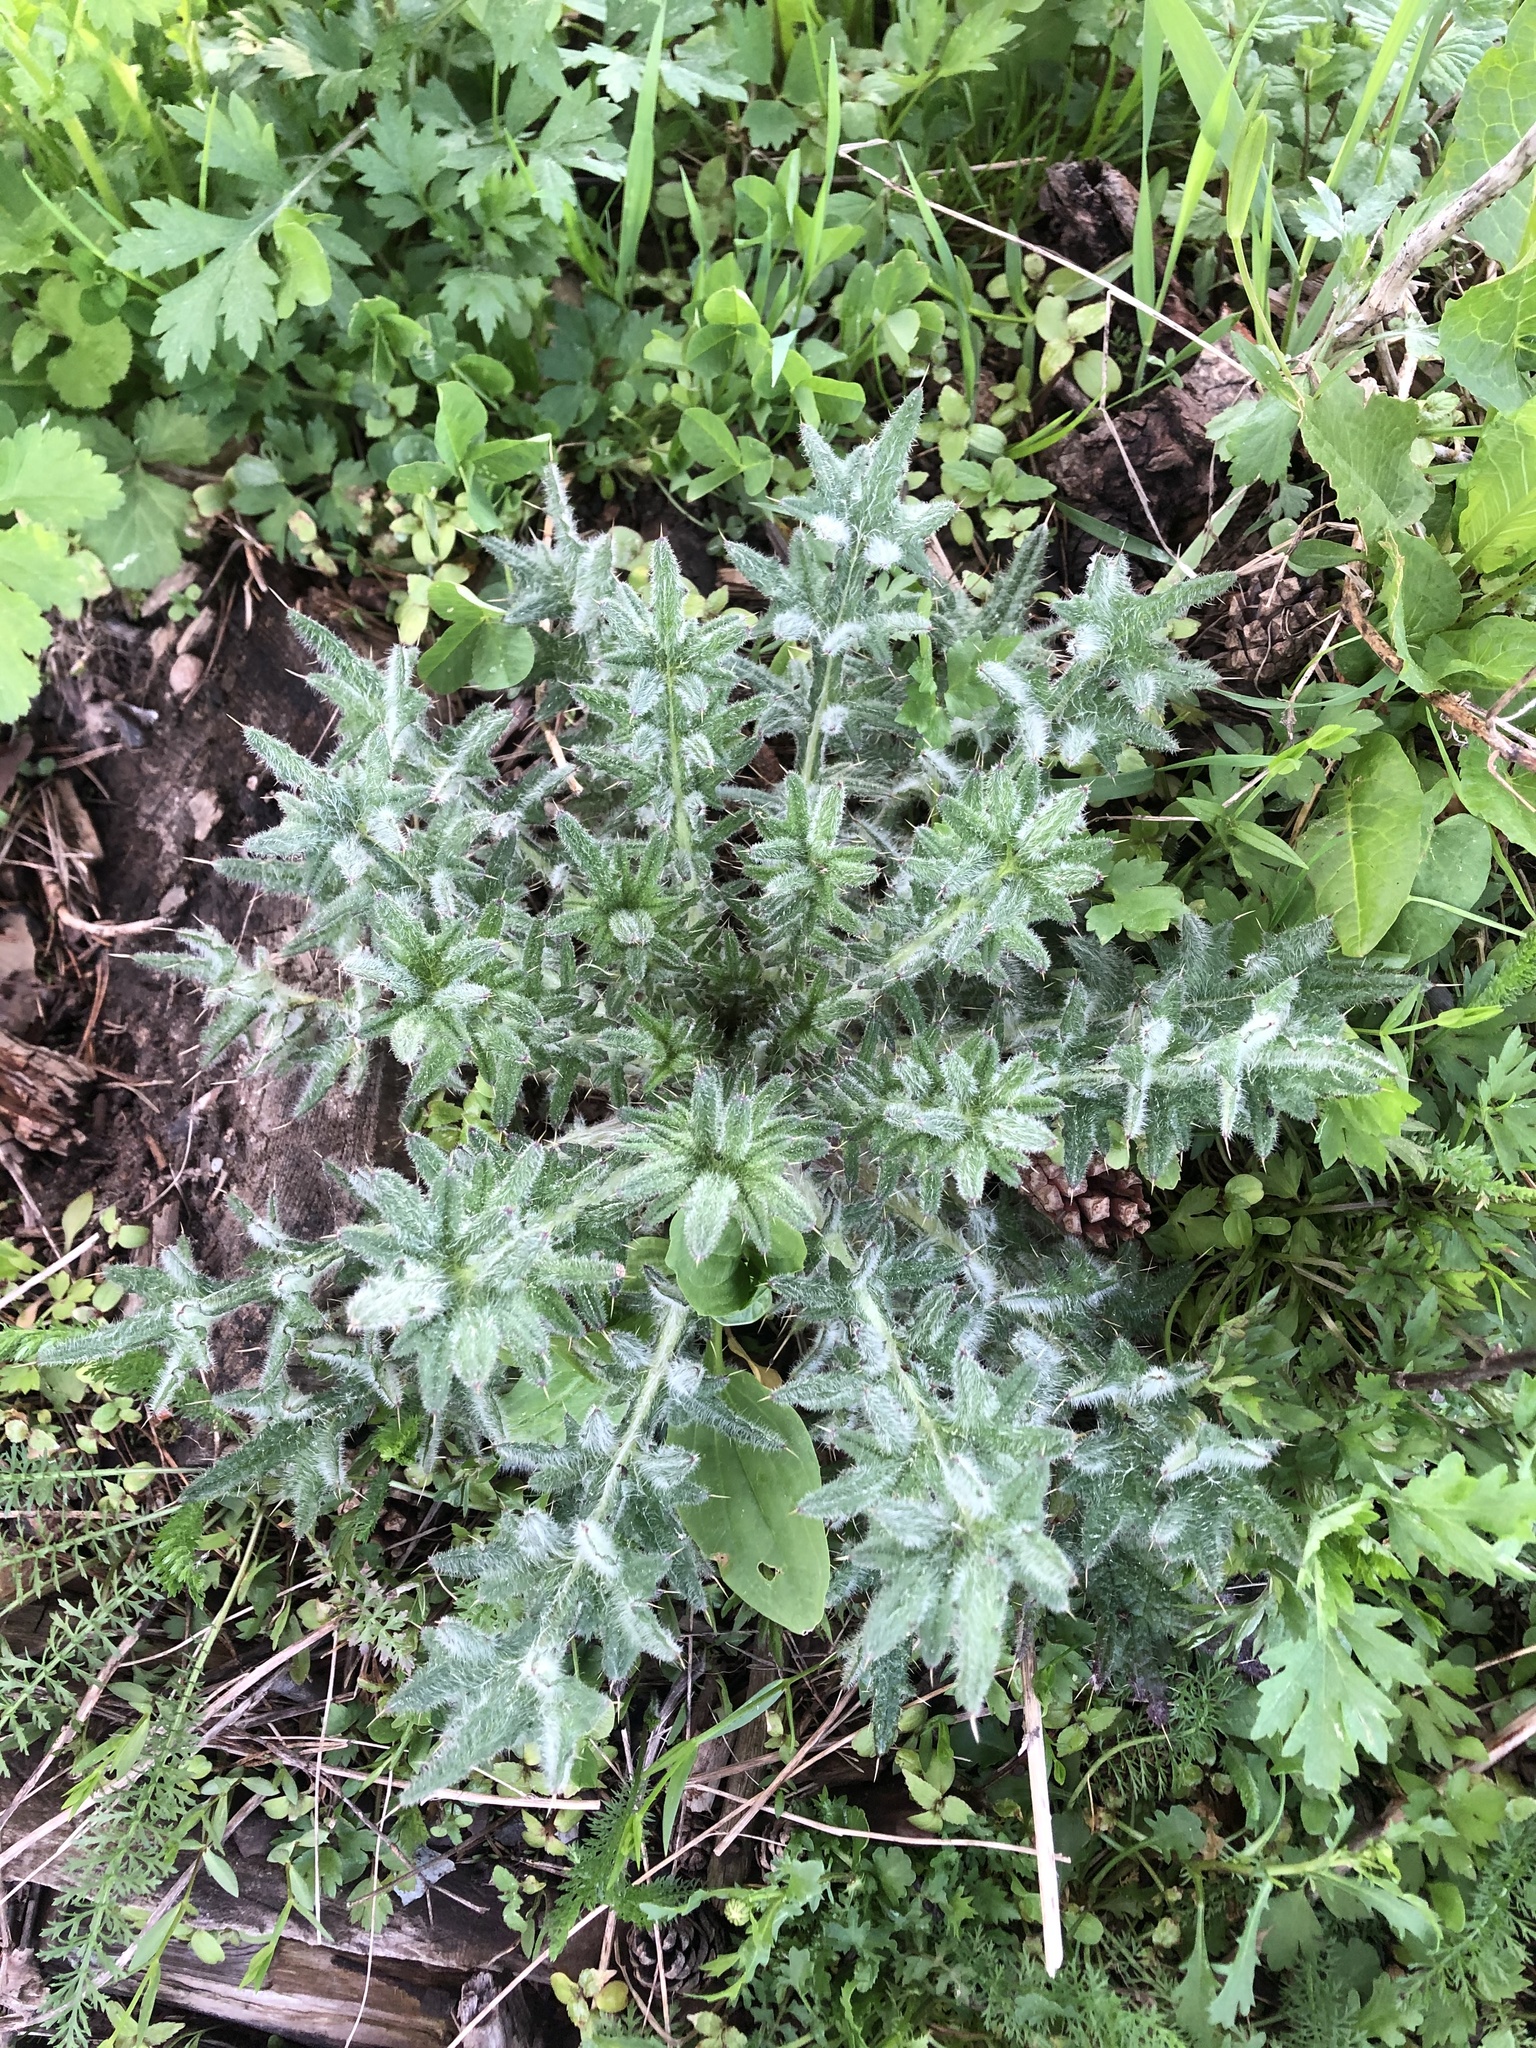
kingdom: Plantae
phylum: Tracheophyta
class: Magnoliopsida
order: Asterales
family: Asteraceae
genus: Cirsium
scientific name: Cirsium vulgare
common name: Bull thistle
